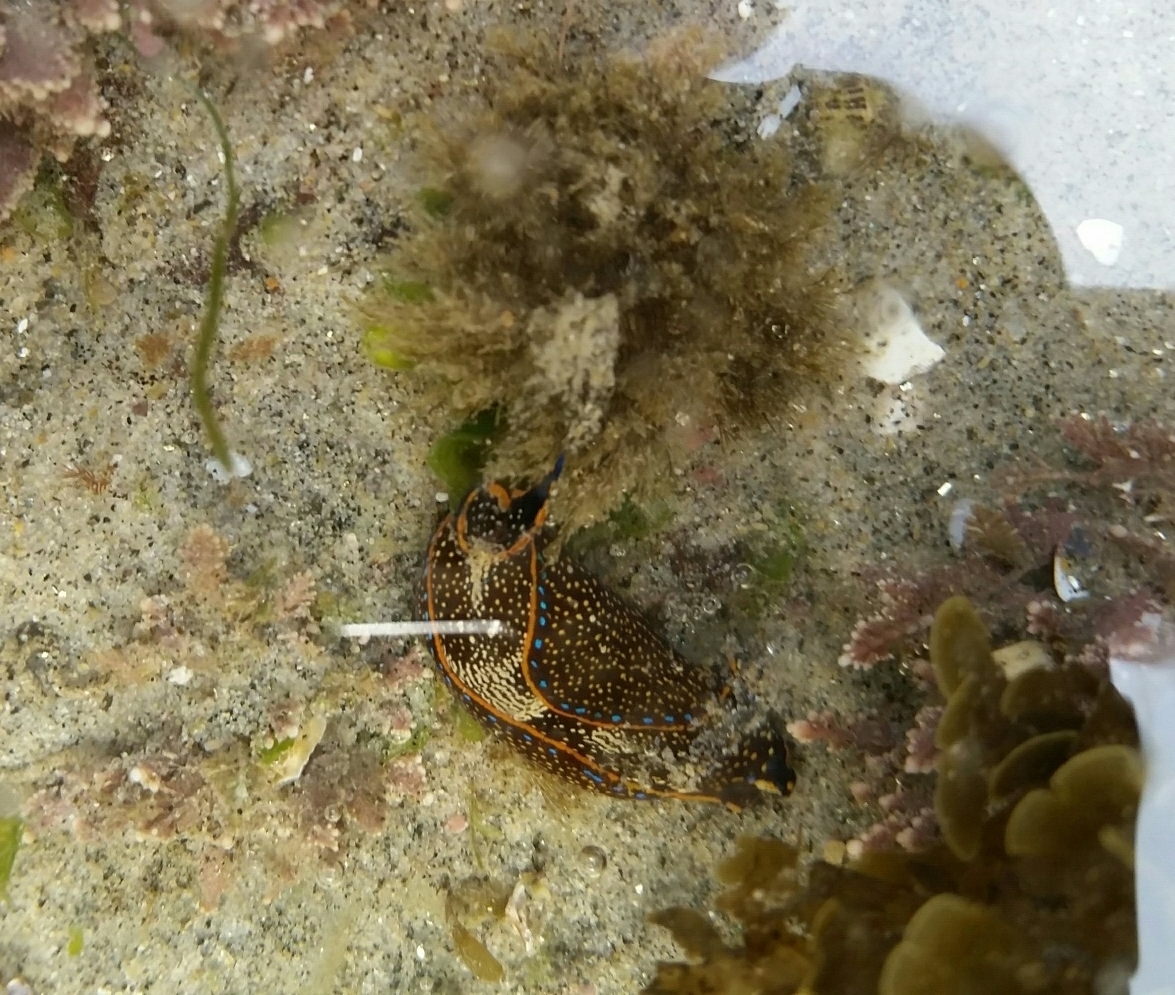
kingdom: Animalia
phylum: Mollusca
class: Gastropoda
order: Cephalaspidea
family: Aglajidae
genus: Navanax
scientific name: Navanax inermis
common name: California aglaja
